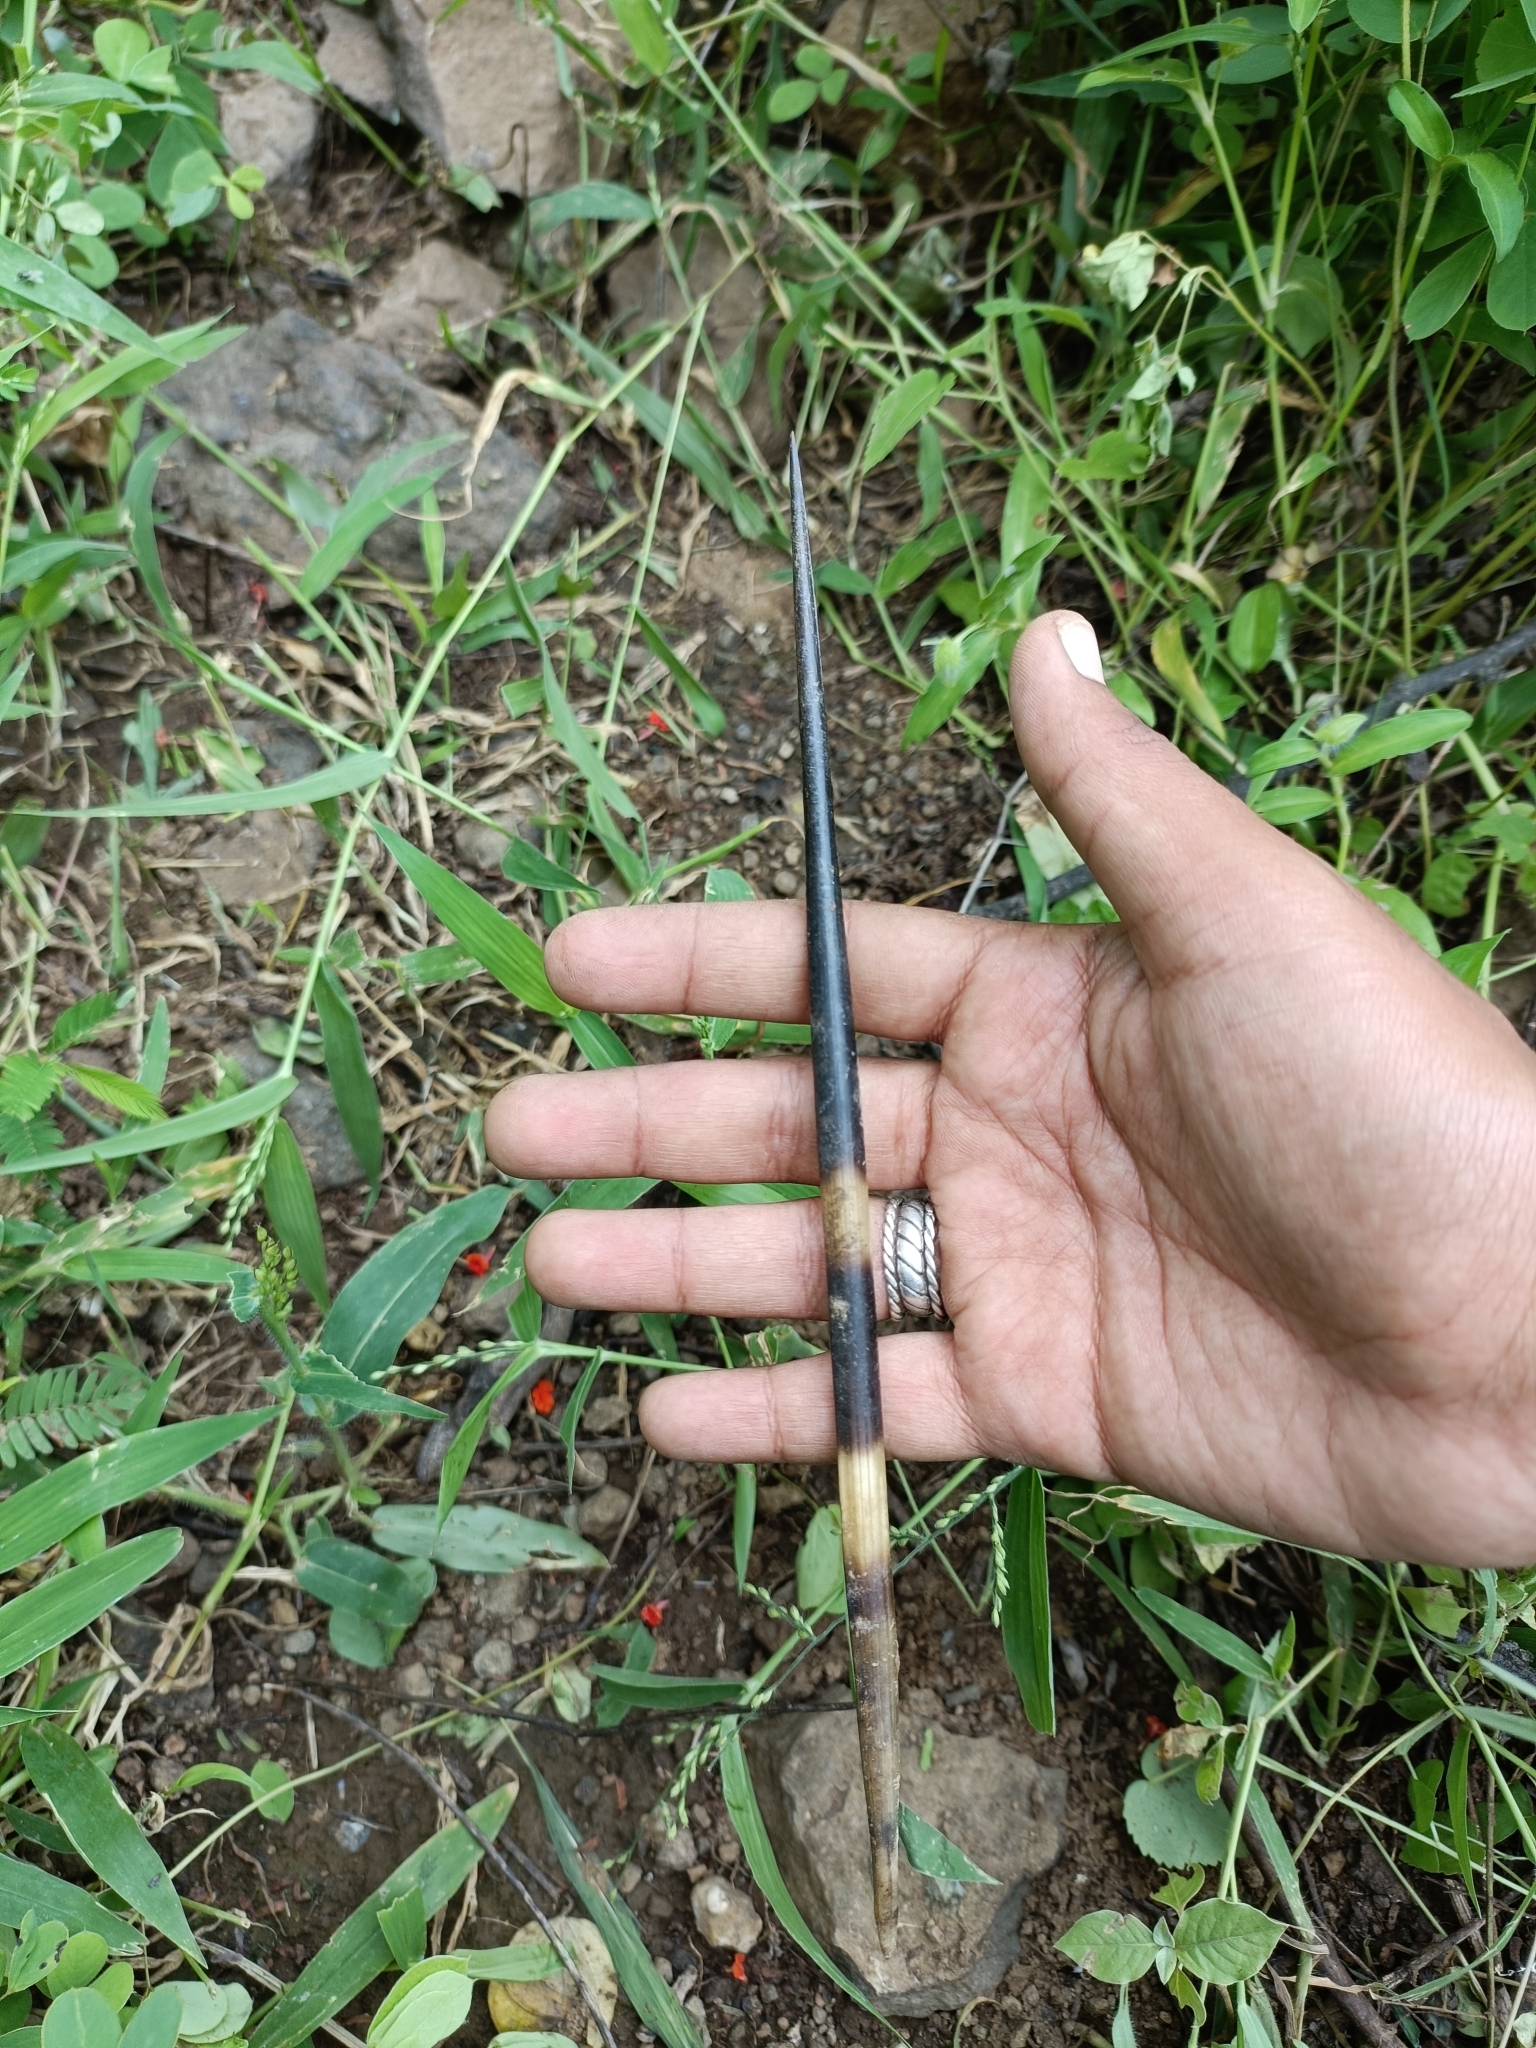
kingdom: Animalia
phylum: Chordata
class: Mammalia
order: Rodentia
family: Hystricidae
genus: Hystrix
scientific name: Hystrix indica
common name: Indian crested porcupine
